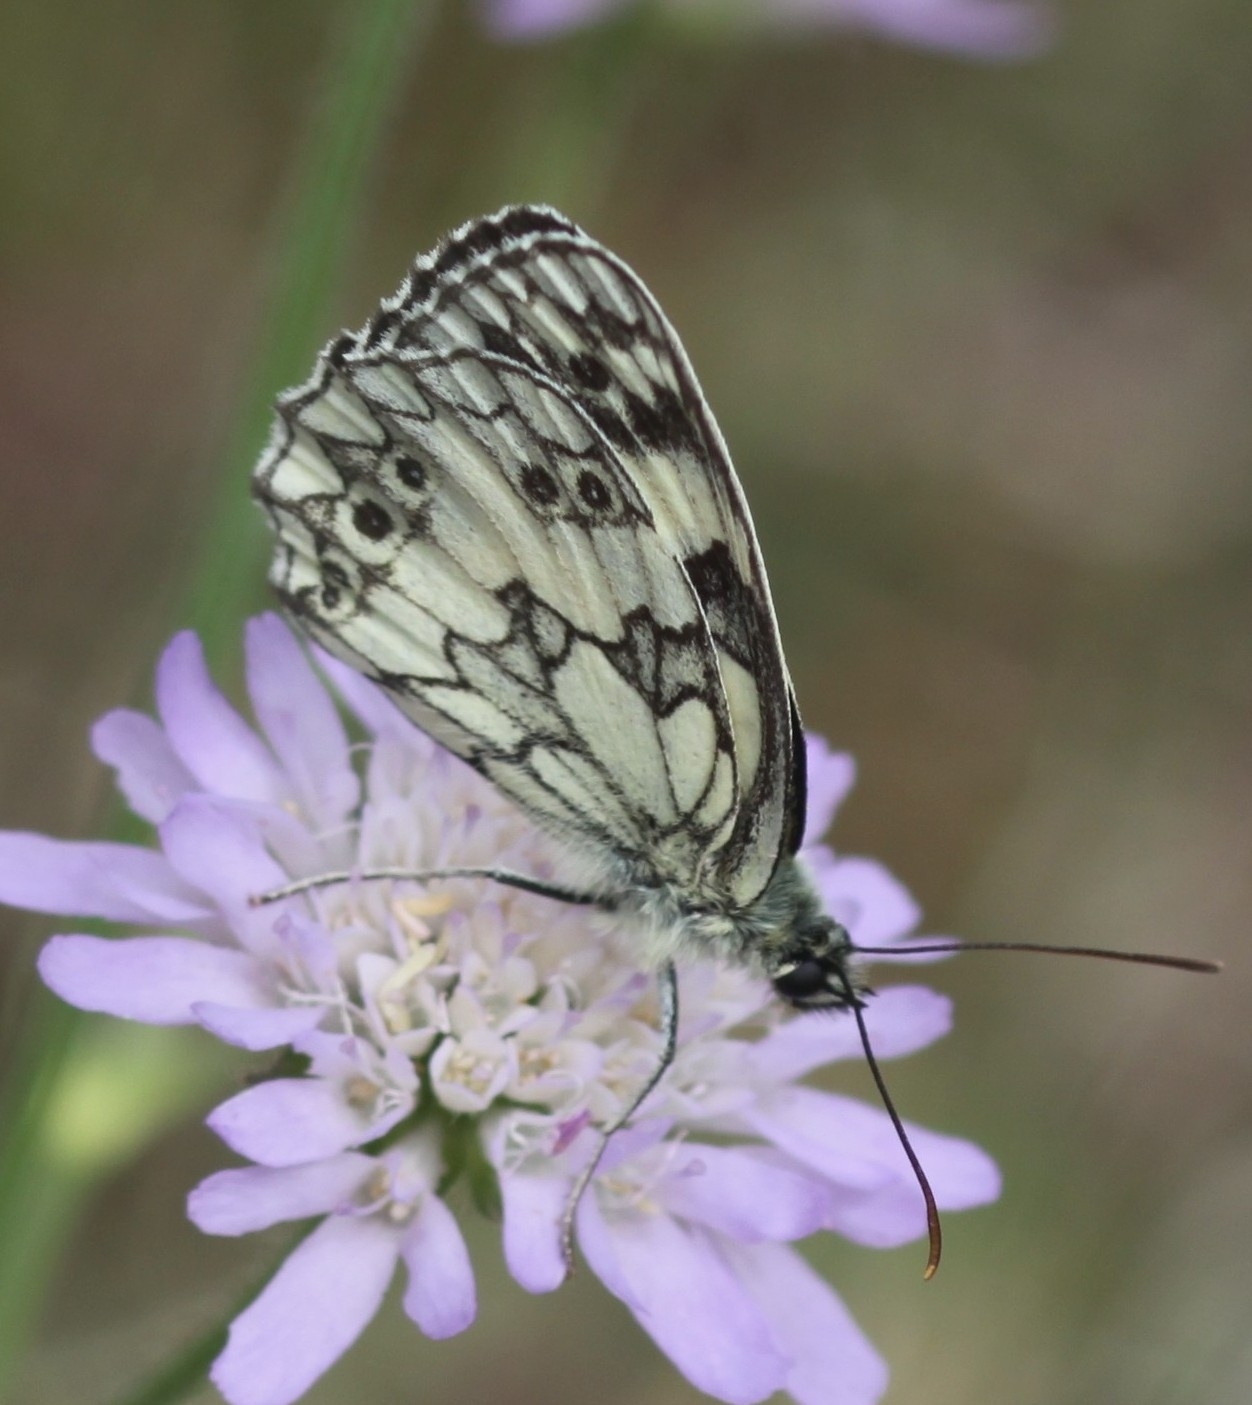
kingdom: Animalia
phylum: Arthropoda
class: Insecta
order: Lepidoptera
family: Nymphalidae
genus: Melanargia
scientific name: Melanargia galathea
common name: Marbled white
